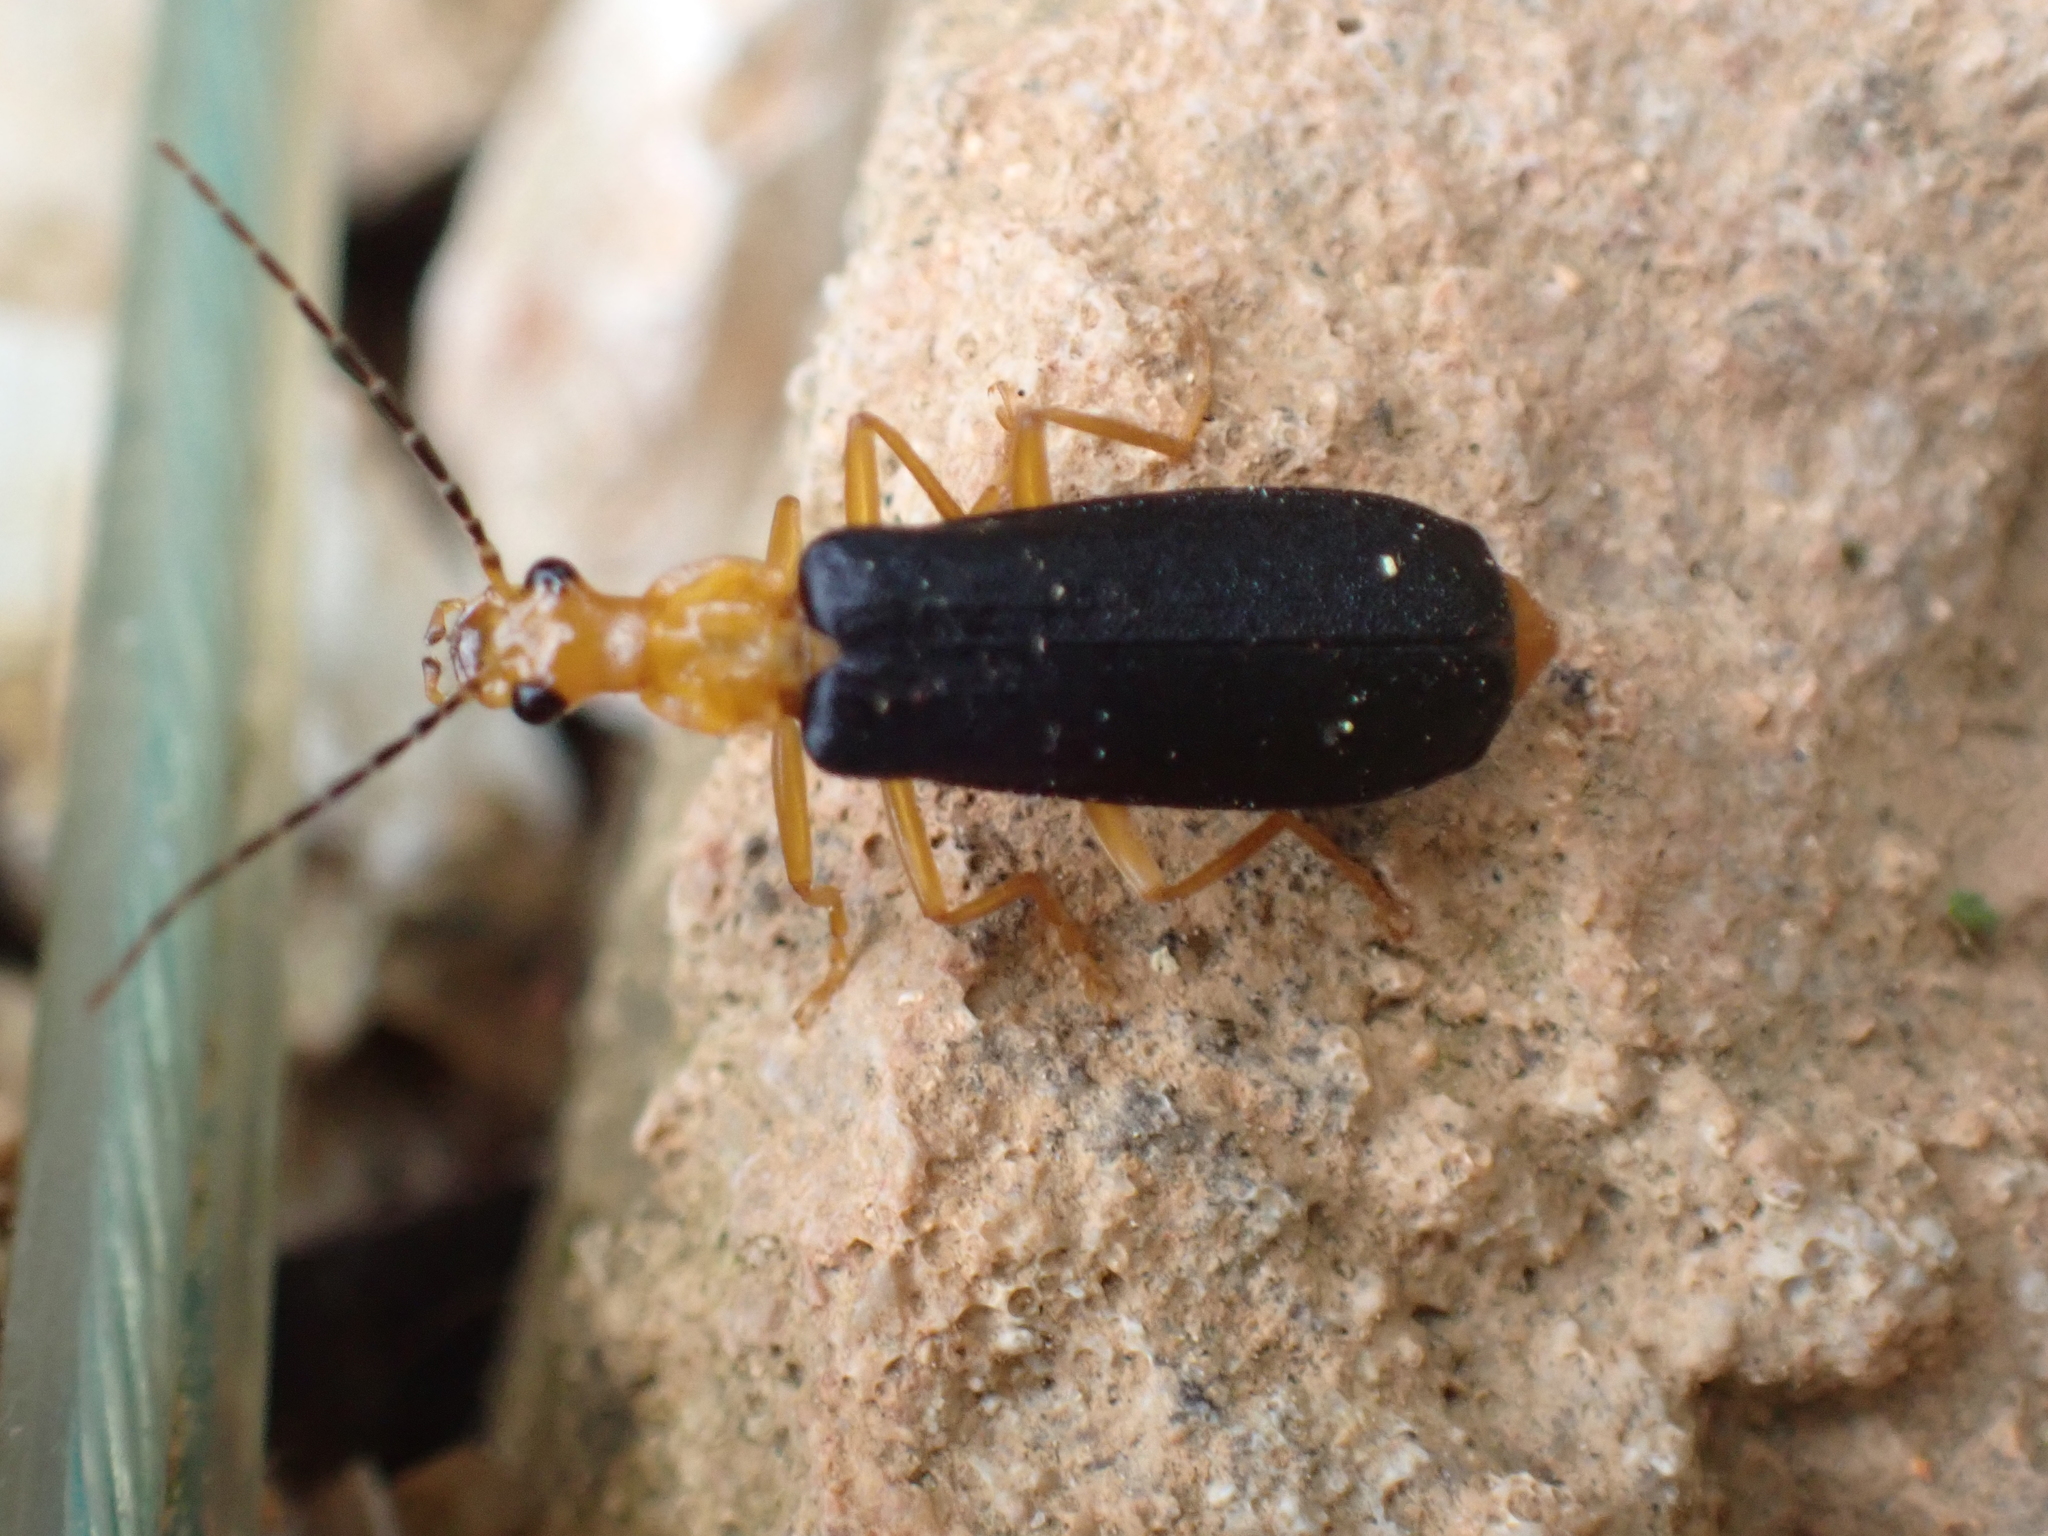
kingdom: Animalia
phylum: Arthropoda
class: Insecta
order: Coleoptera
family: Cantharidae
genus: Podabrus
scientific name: Podabrus fayi
